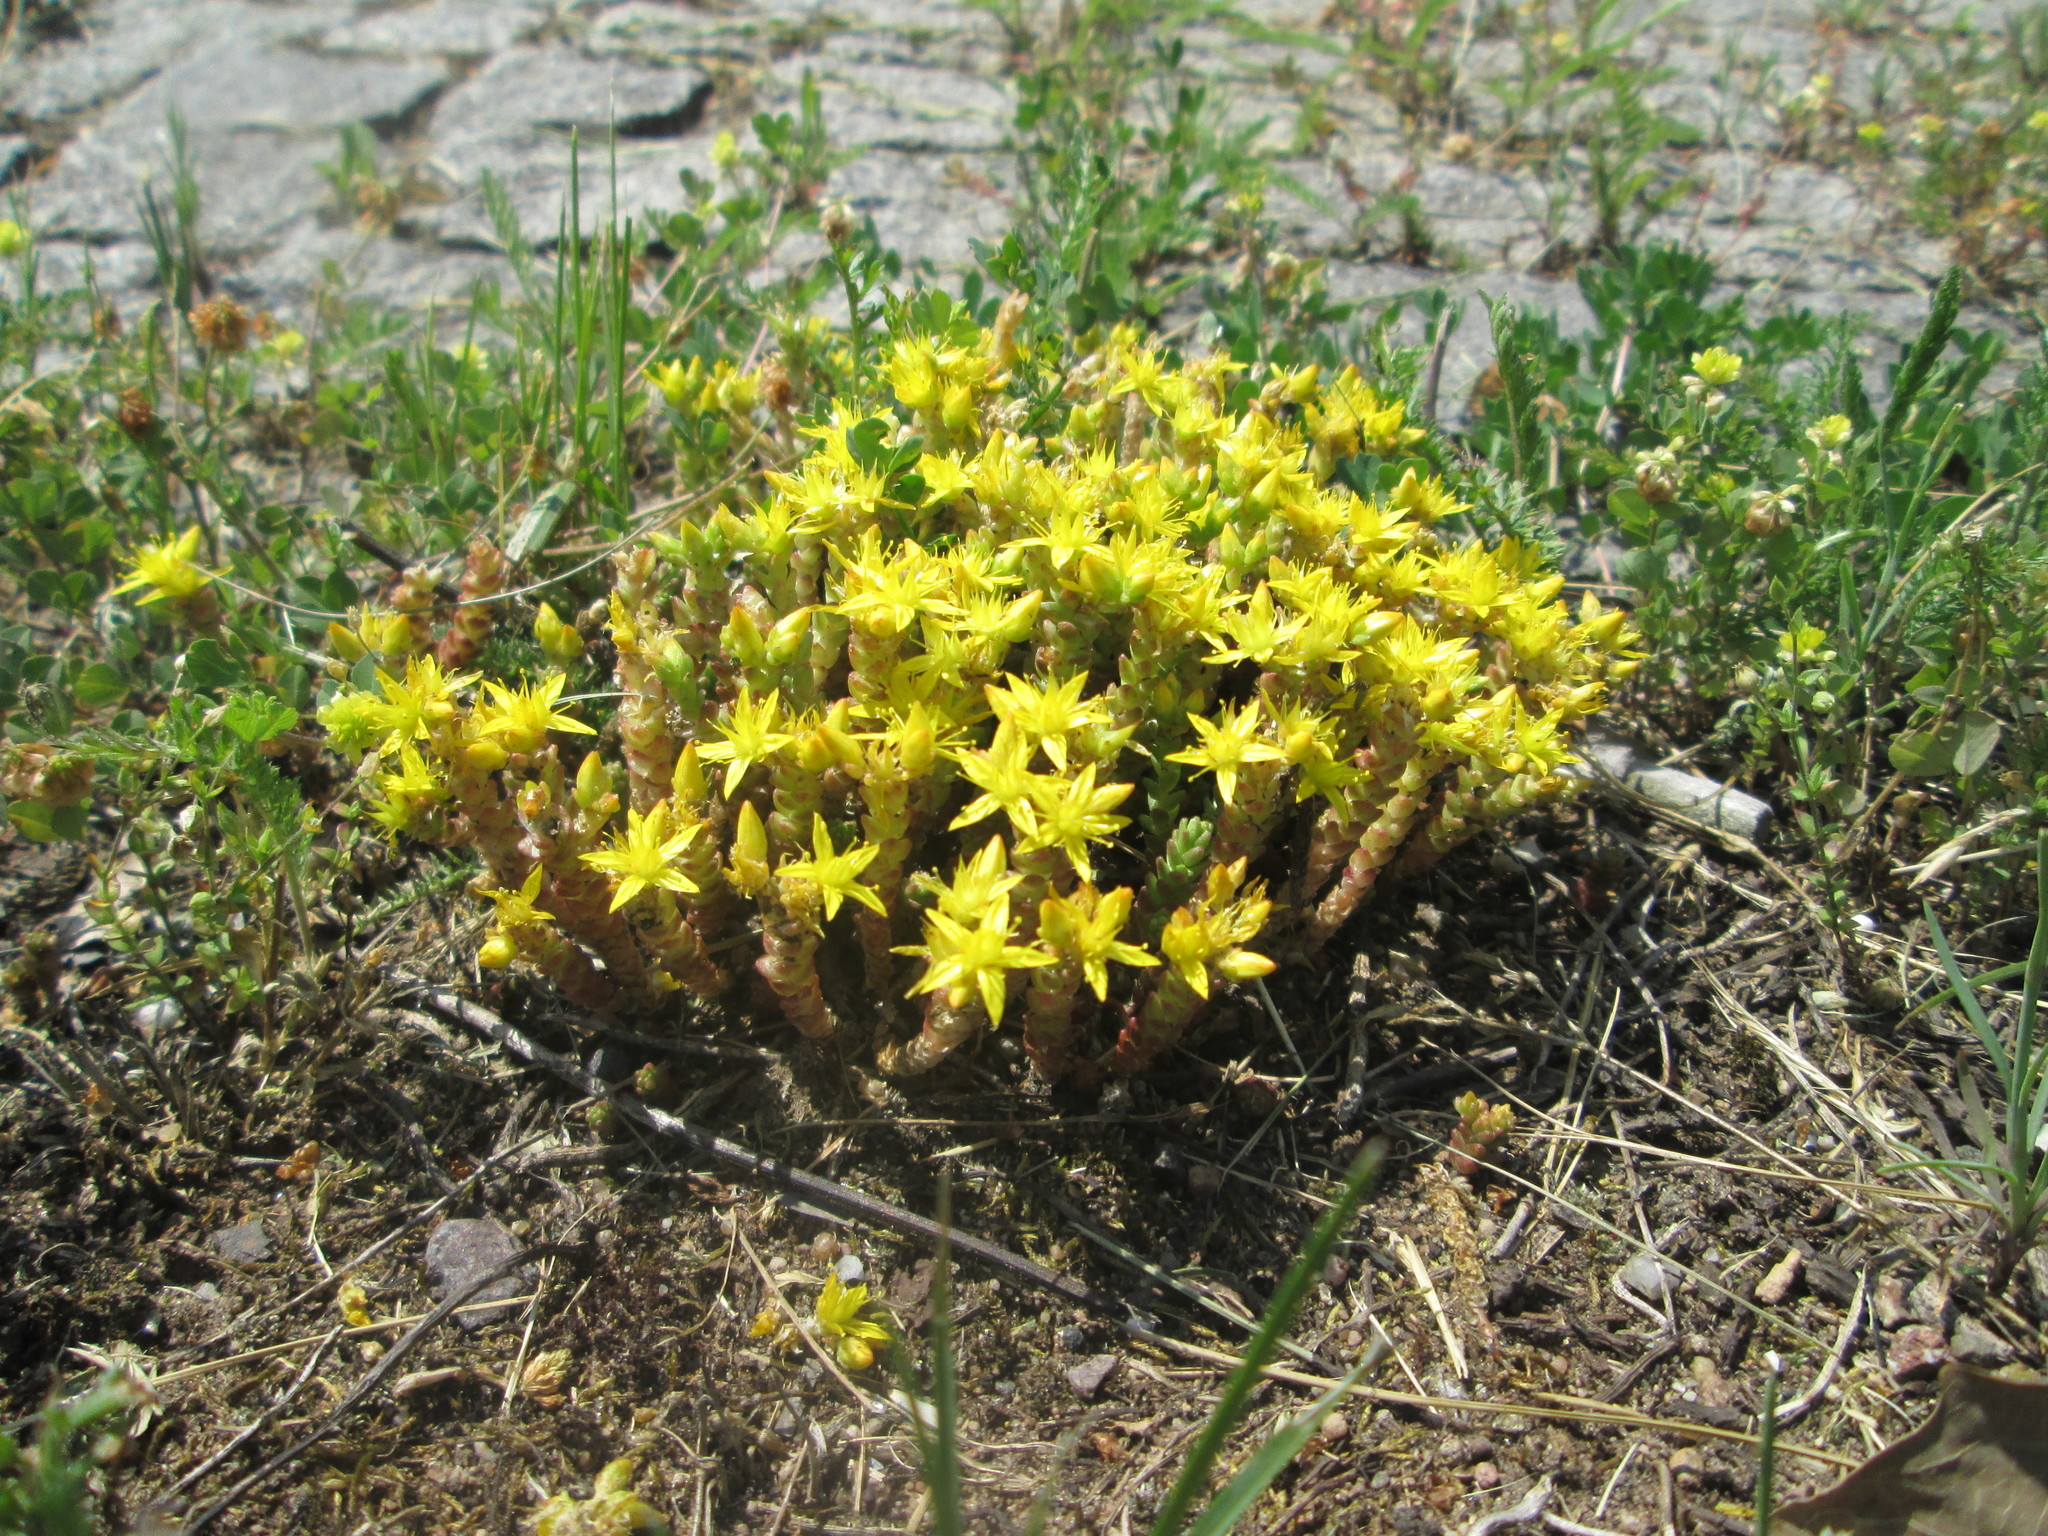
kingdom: Plantae
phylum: Tracheophyta
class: Magnoliopsida
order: Saxifragales
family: Crassulaceae
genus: Sedum
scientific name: Sedum acre
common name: Biting stonecrop
